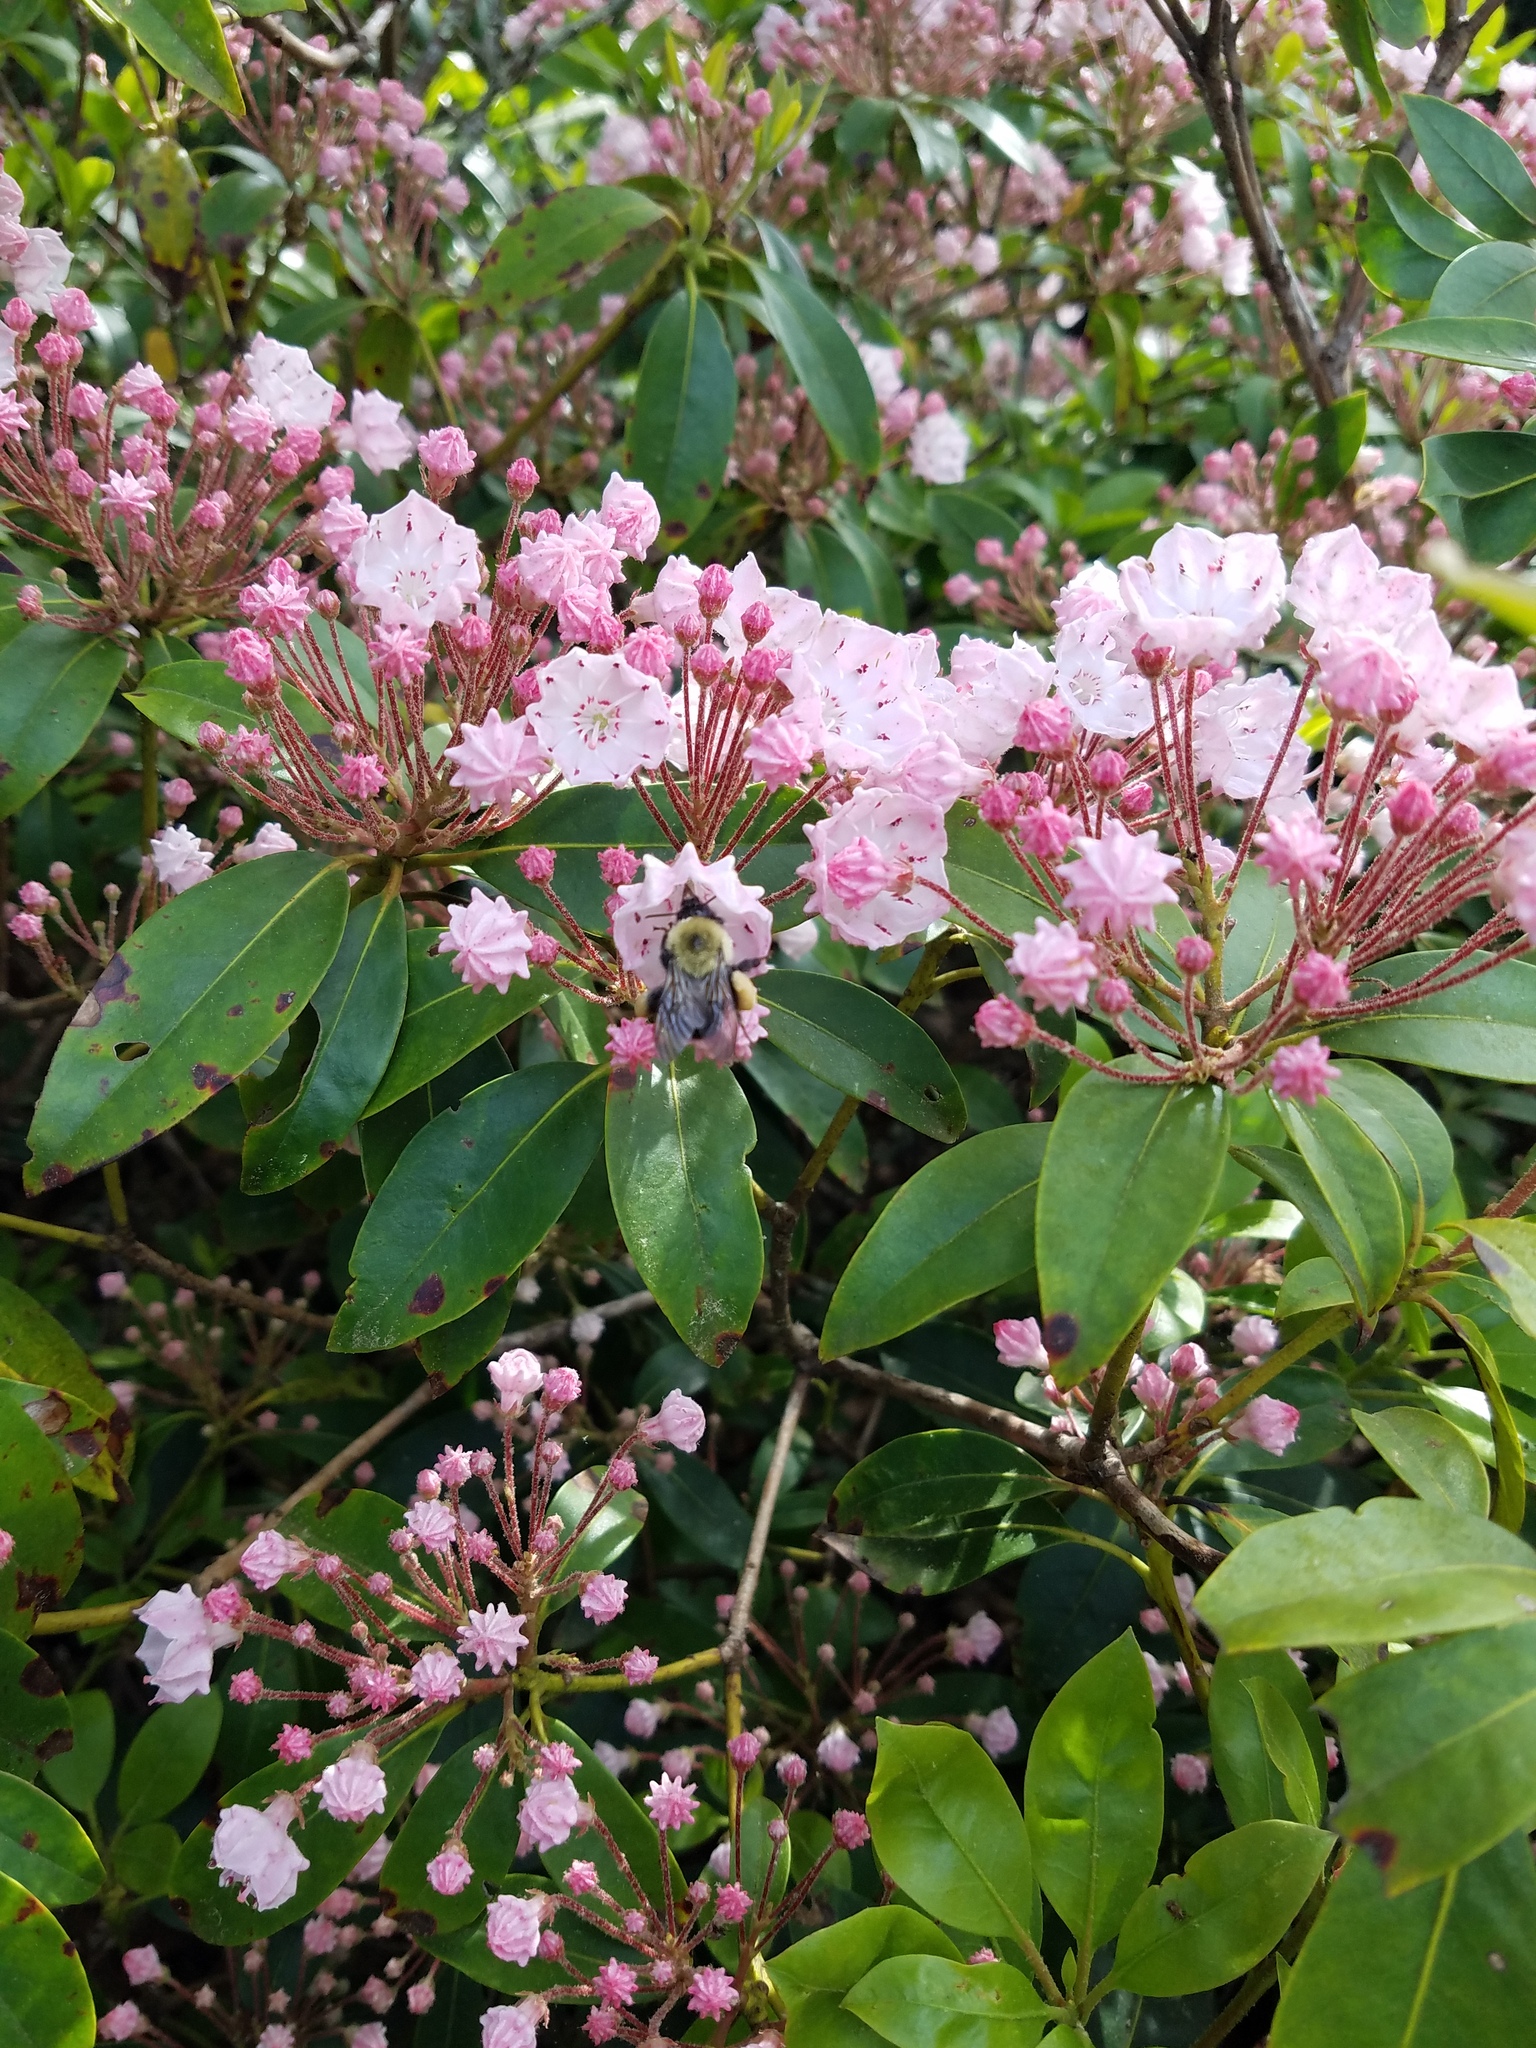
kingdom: Plantae
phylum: Tracheophyta
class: Magnoliopsida
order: Ericales
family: Ericaceae
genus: Kalmia
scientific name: Kalmia latifolia
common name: Mountain-laurel
